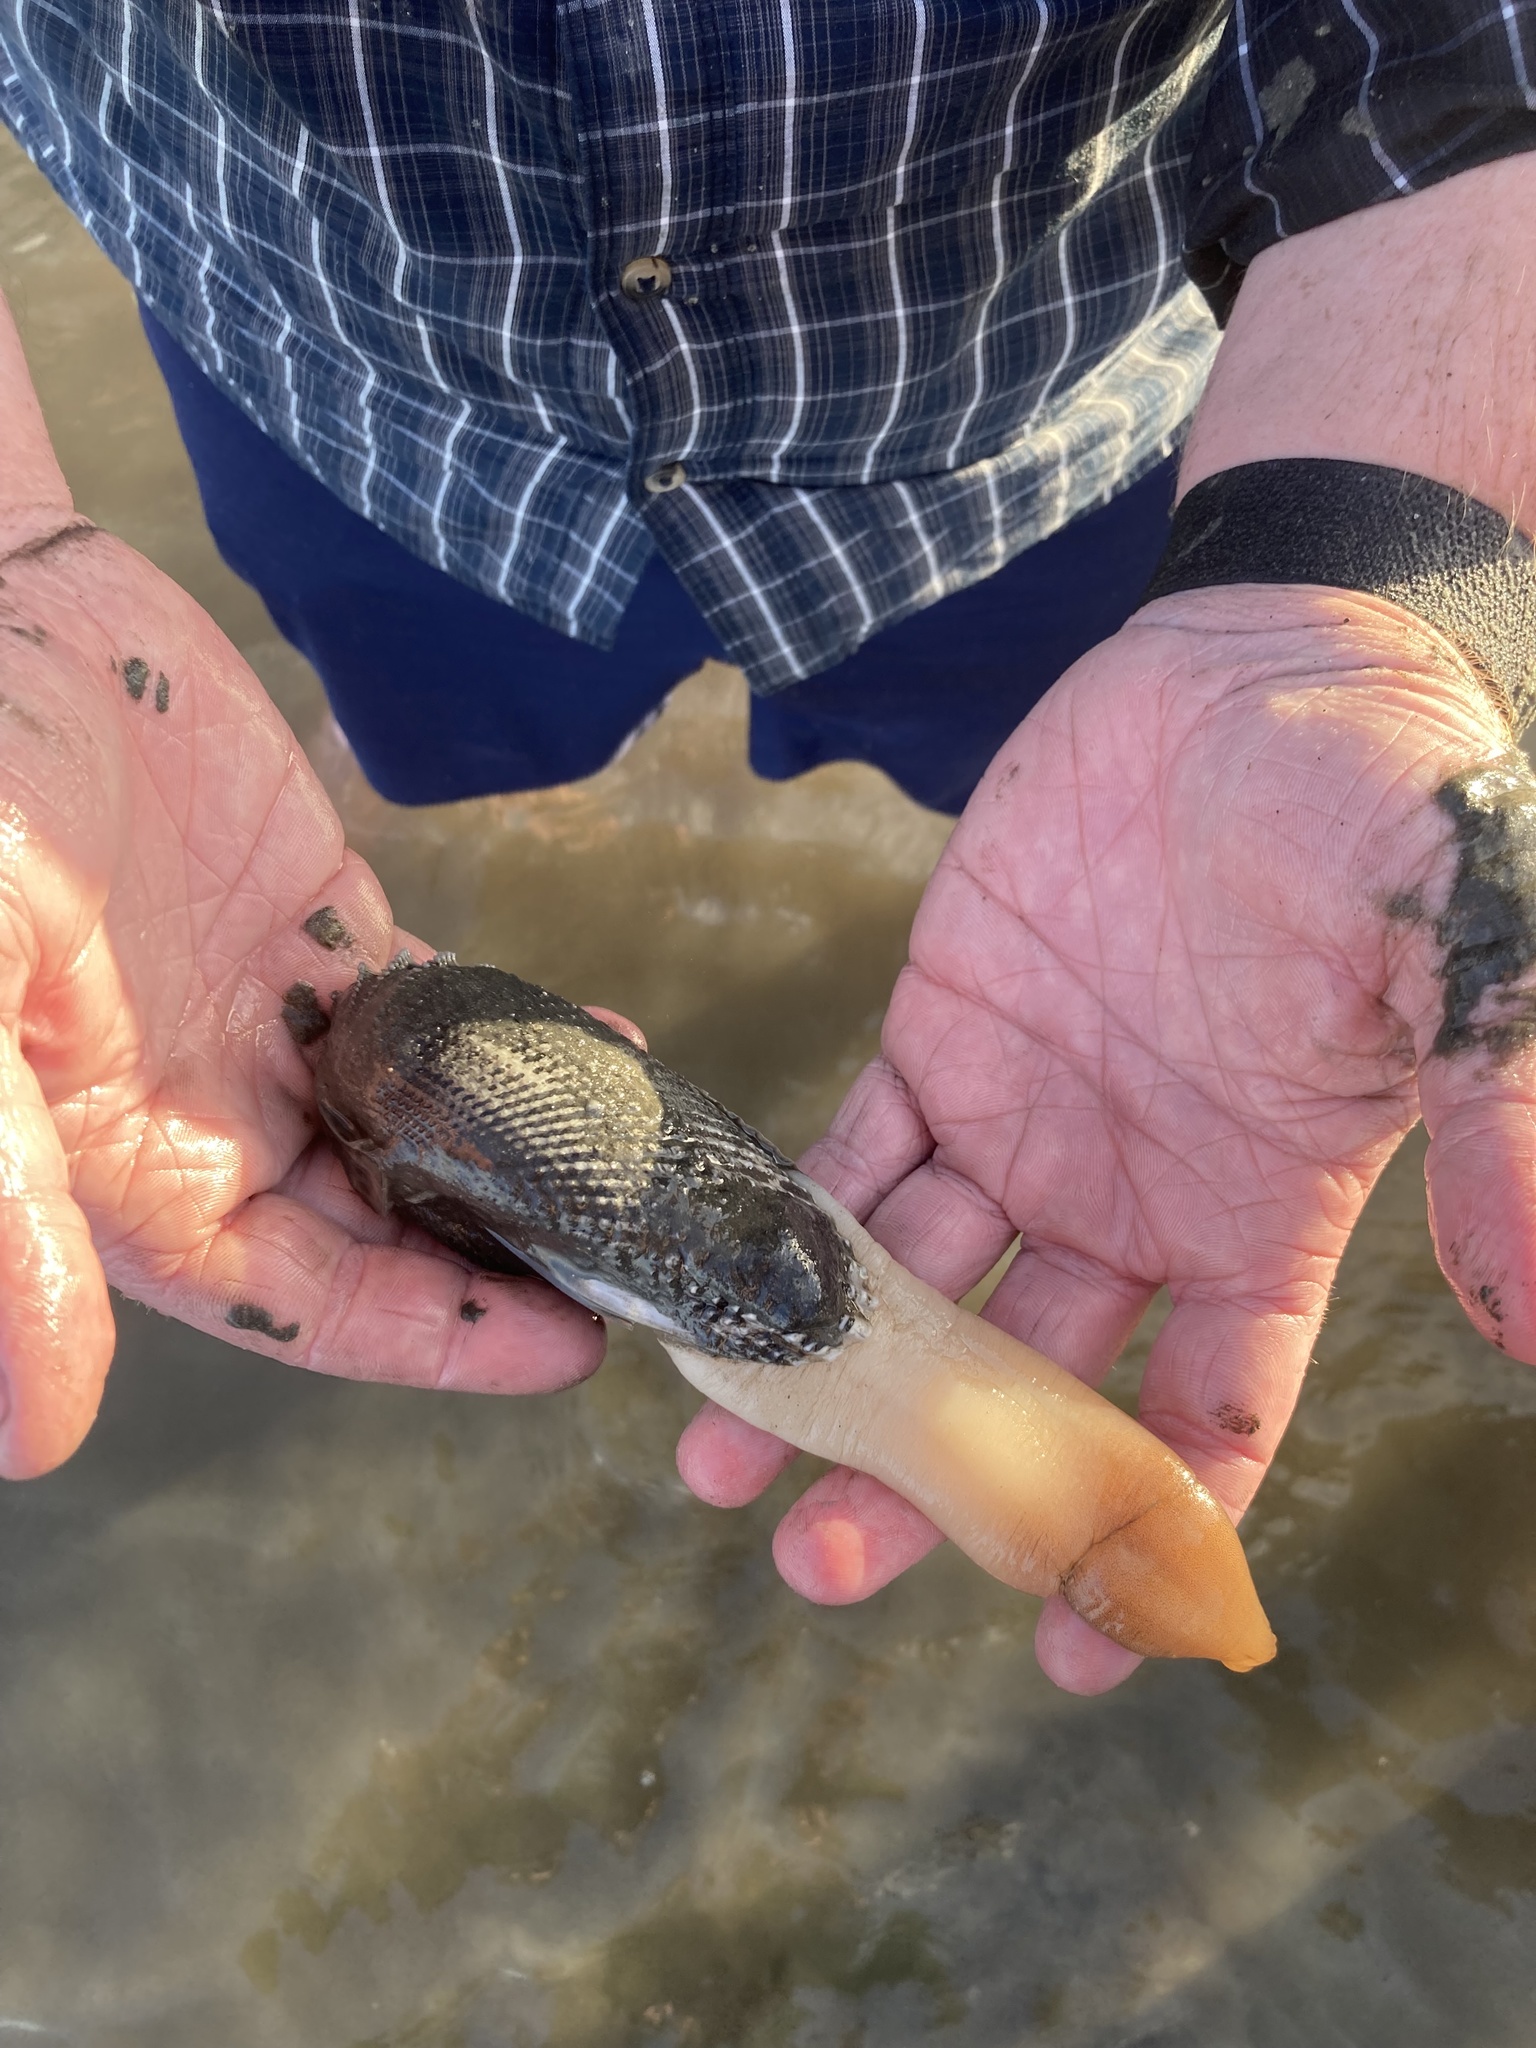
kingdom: Animalia
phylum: Mollusca
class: Bivalvia
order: Myida
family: Pholadidae
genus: Cyrtopleura
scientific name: Cyrtopleura costata
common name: Angel wing
